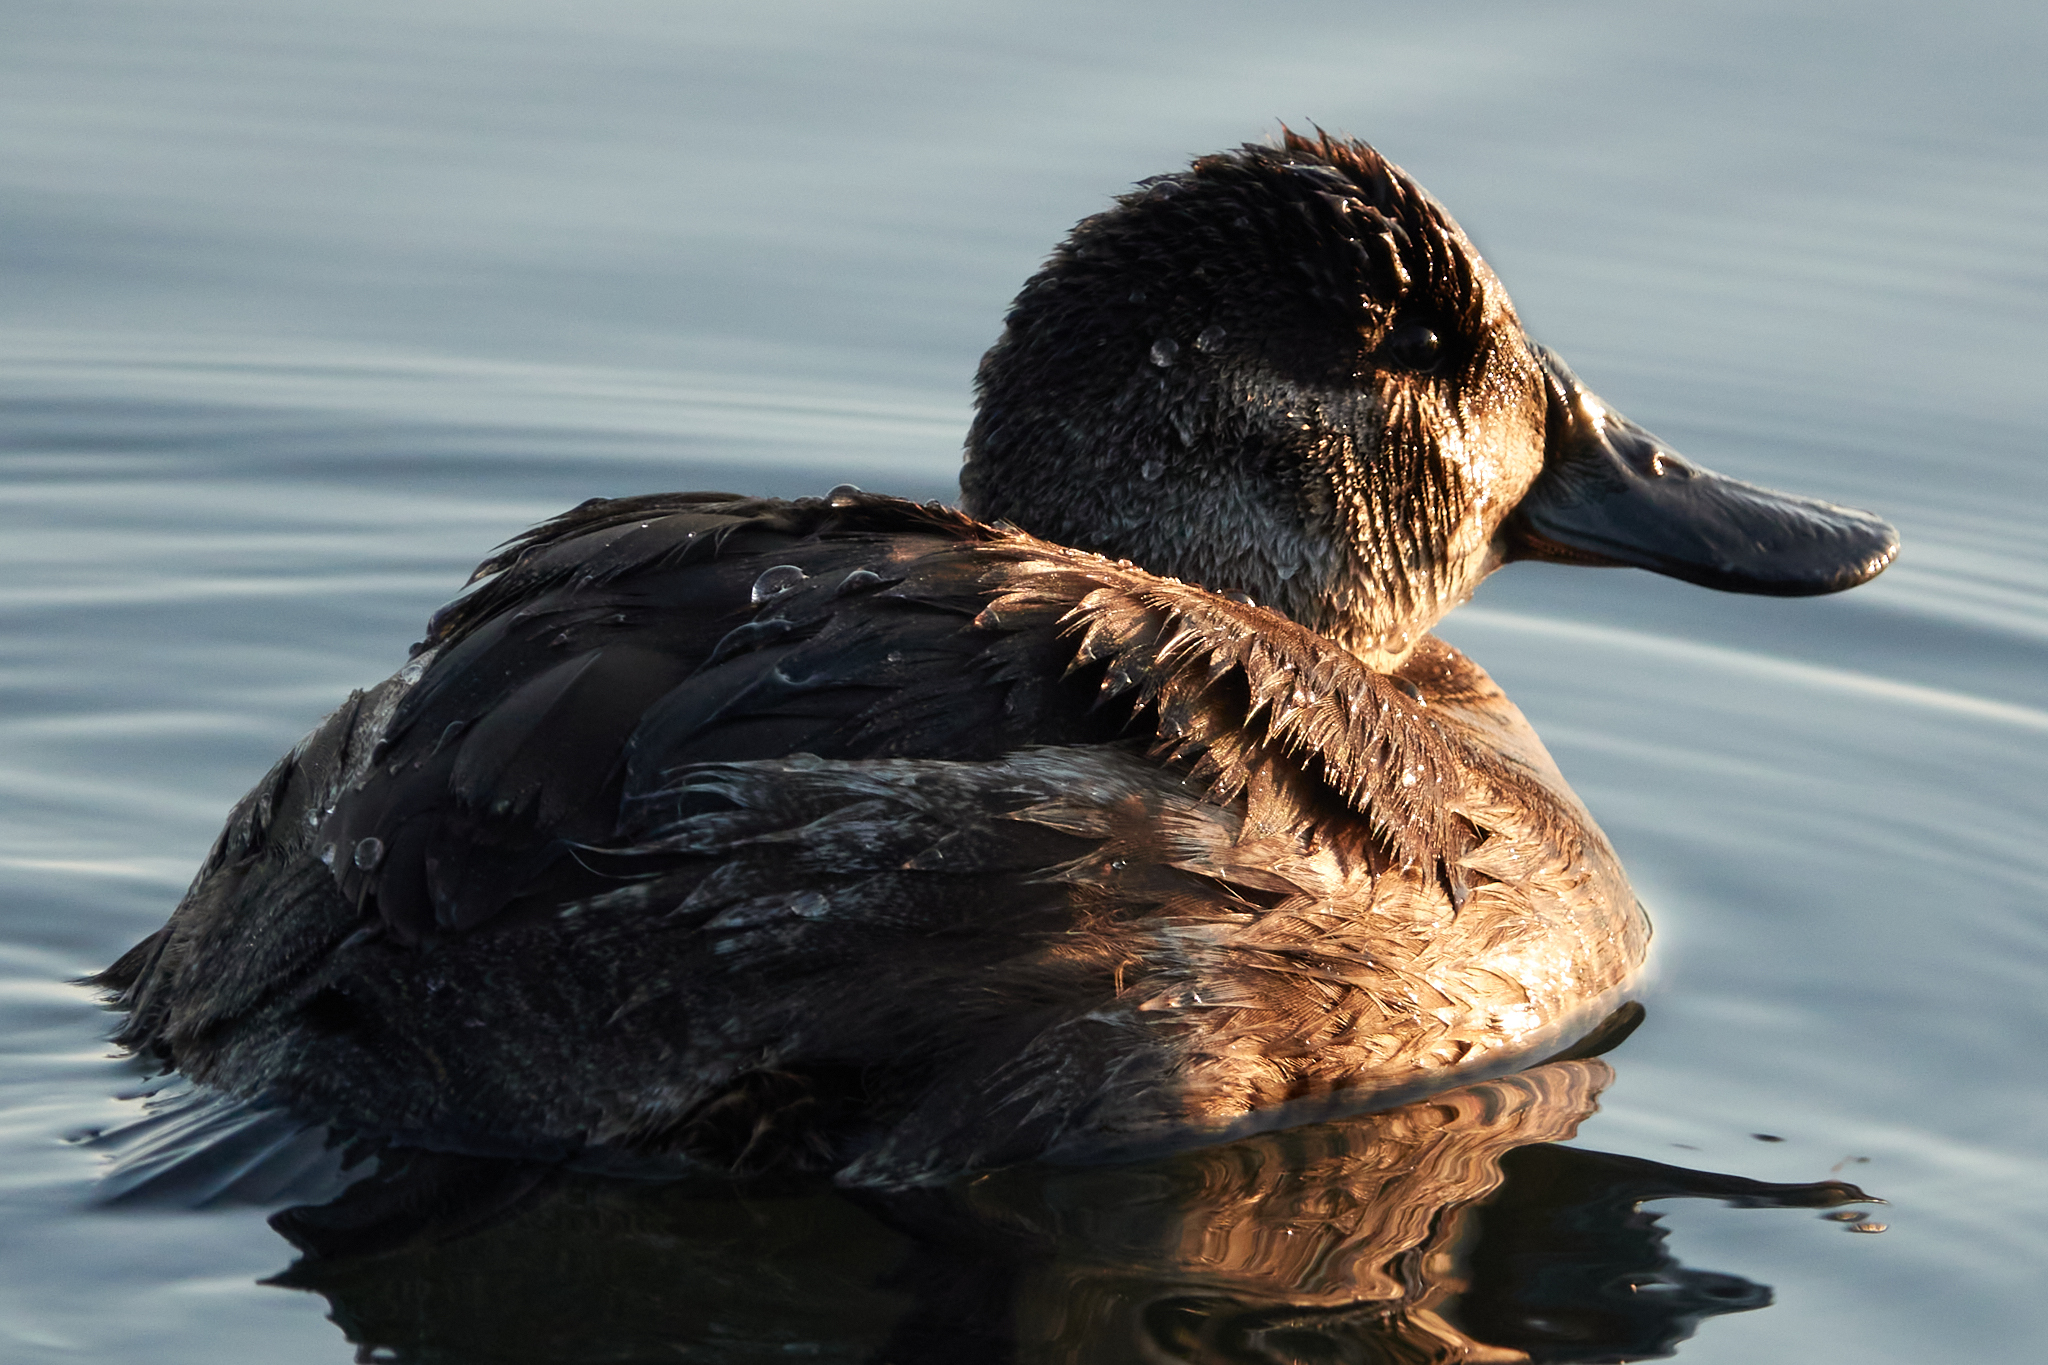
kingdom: Animalia
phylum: Chordata
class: Aves
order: Anseriformes
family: Anatidae
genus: Oxyura
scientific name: Oxyura jamaicensis
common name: Ruddy duck
